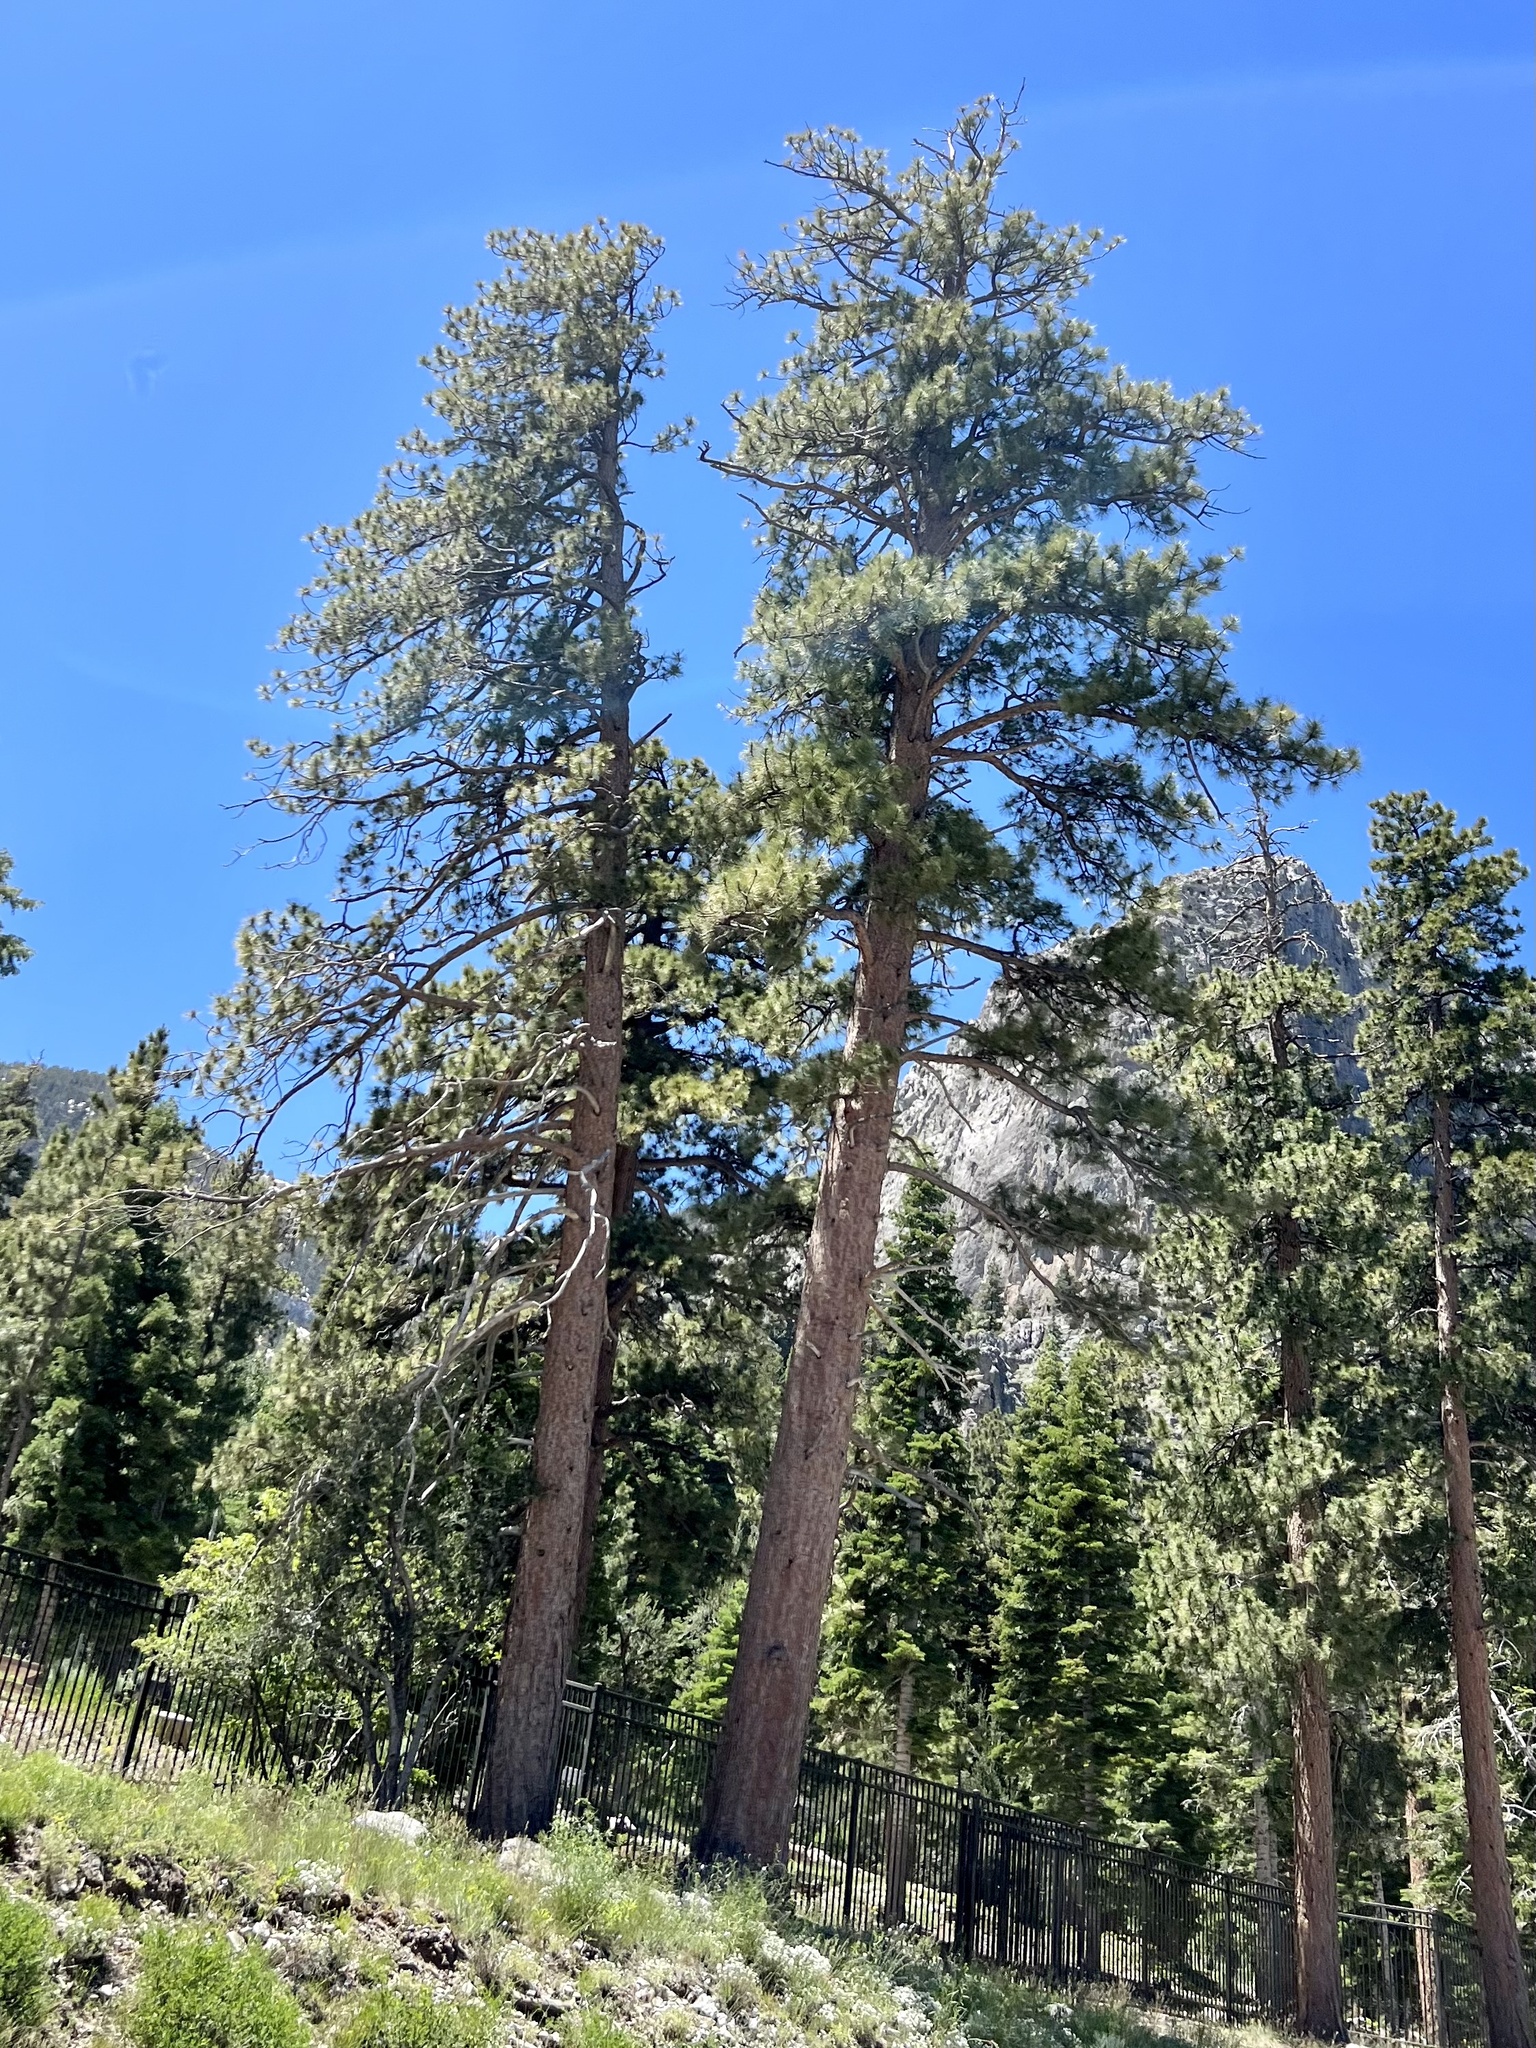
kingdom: Plantae
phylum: Tracheophyta
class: Pinopsida
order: Pinales
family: Pinaceae
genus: Pinus
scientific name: Pinus ponderosa
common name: Western yellow-pine
